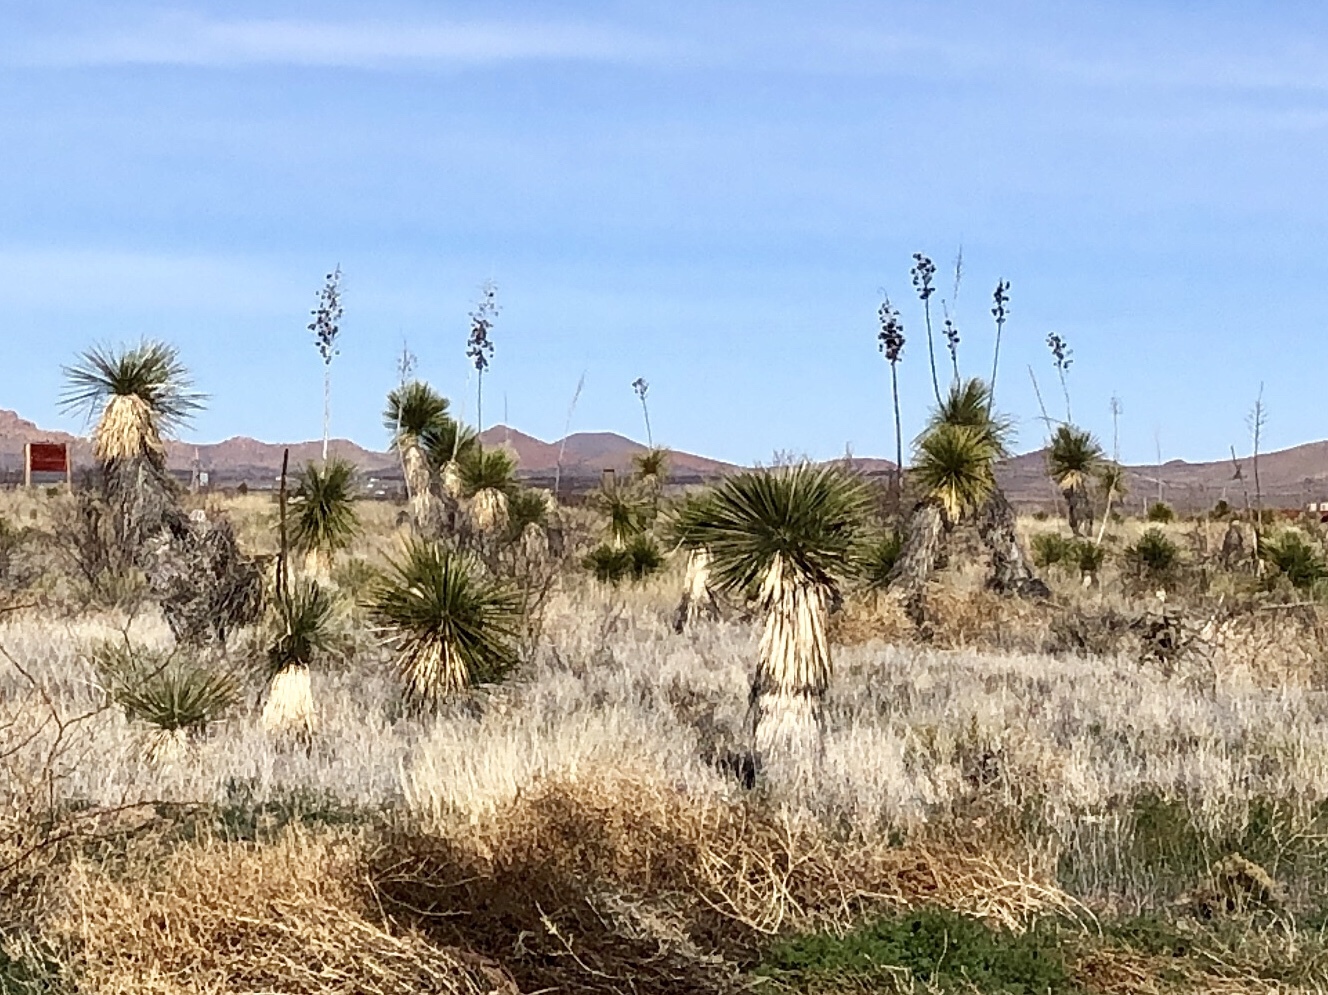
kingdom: Plantae
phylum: Tracheophyta
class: Liliopsida
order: Asparagales
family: Asparagaceae
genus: Yucca
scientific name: Yucca elata
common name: Palmella
